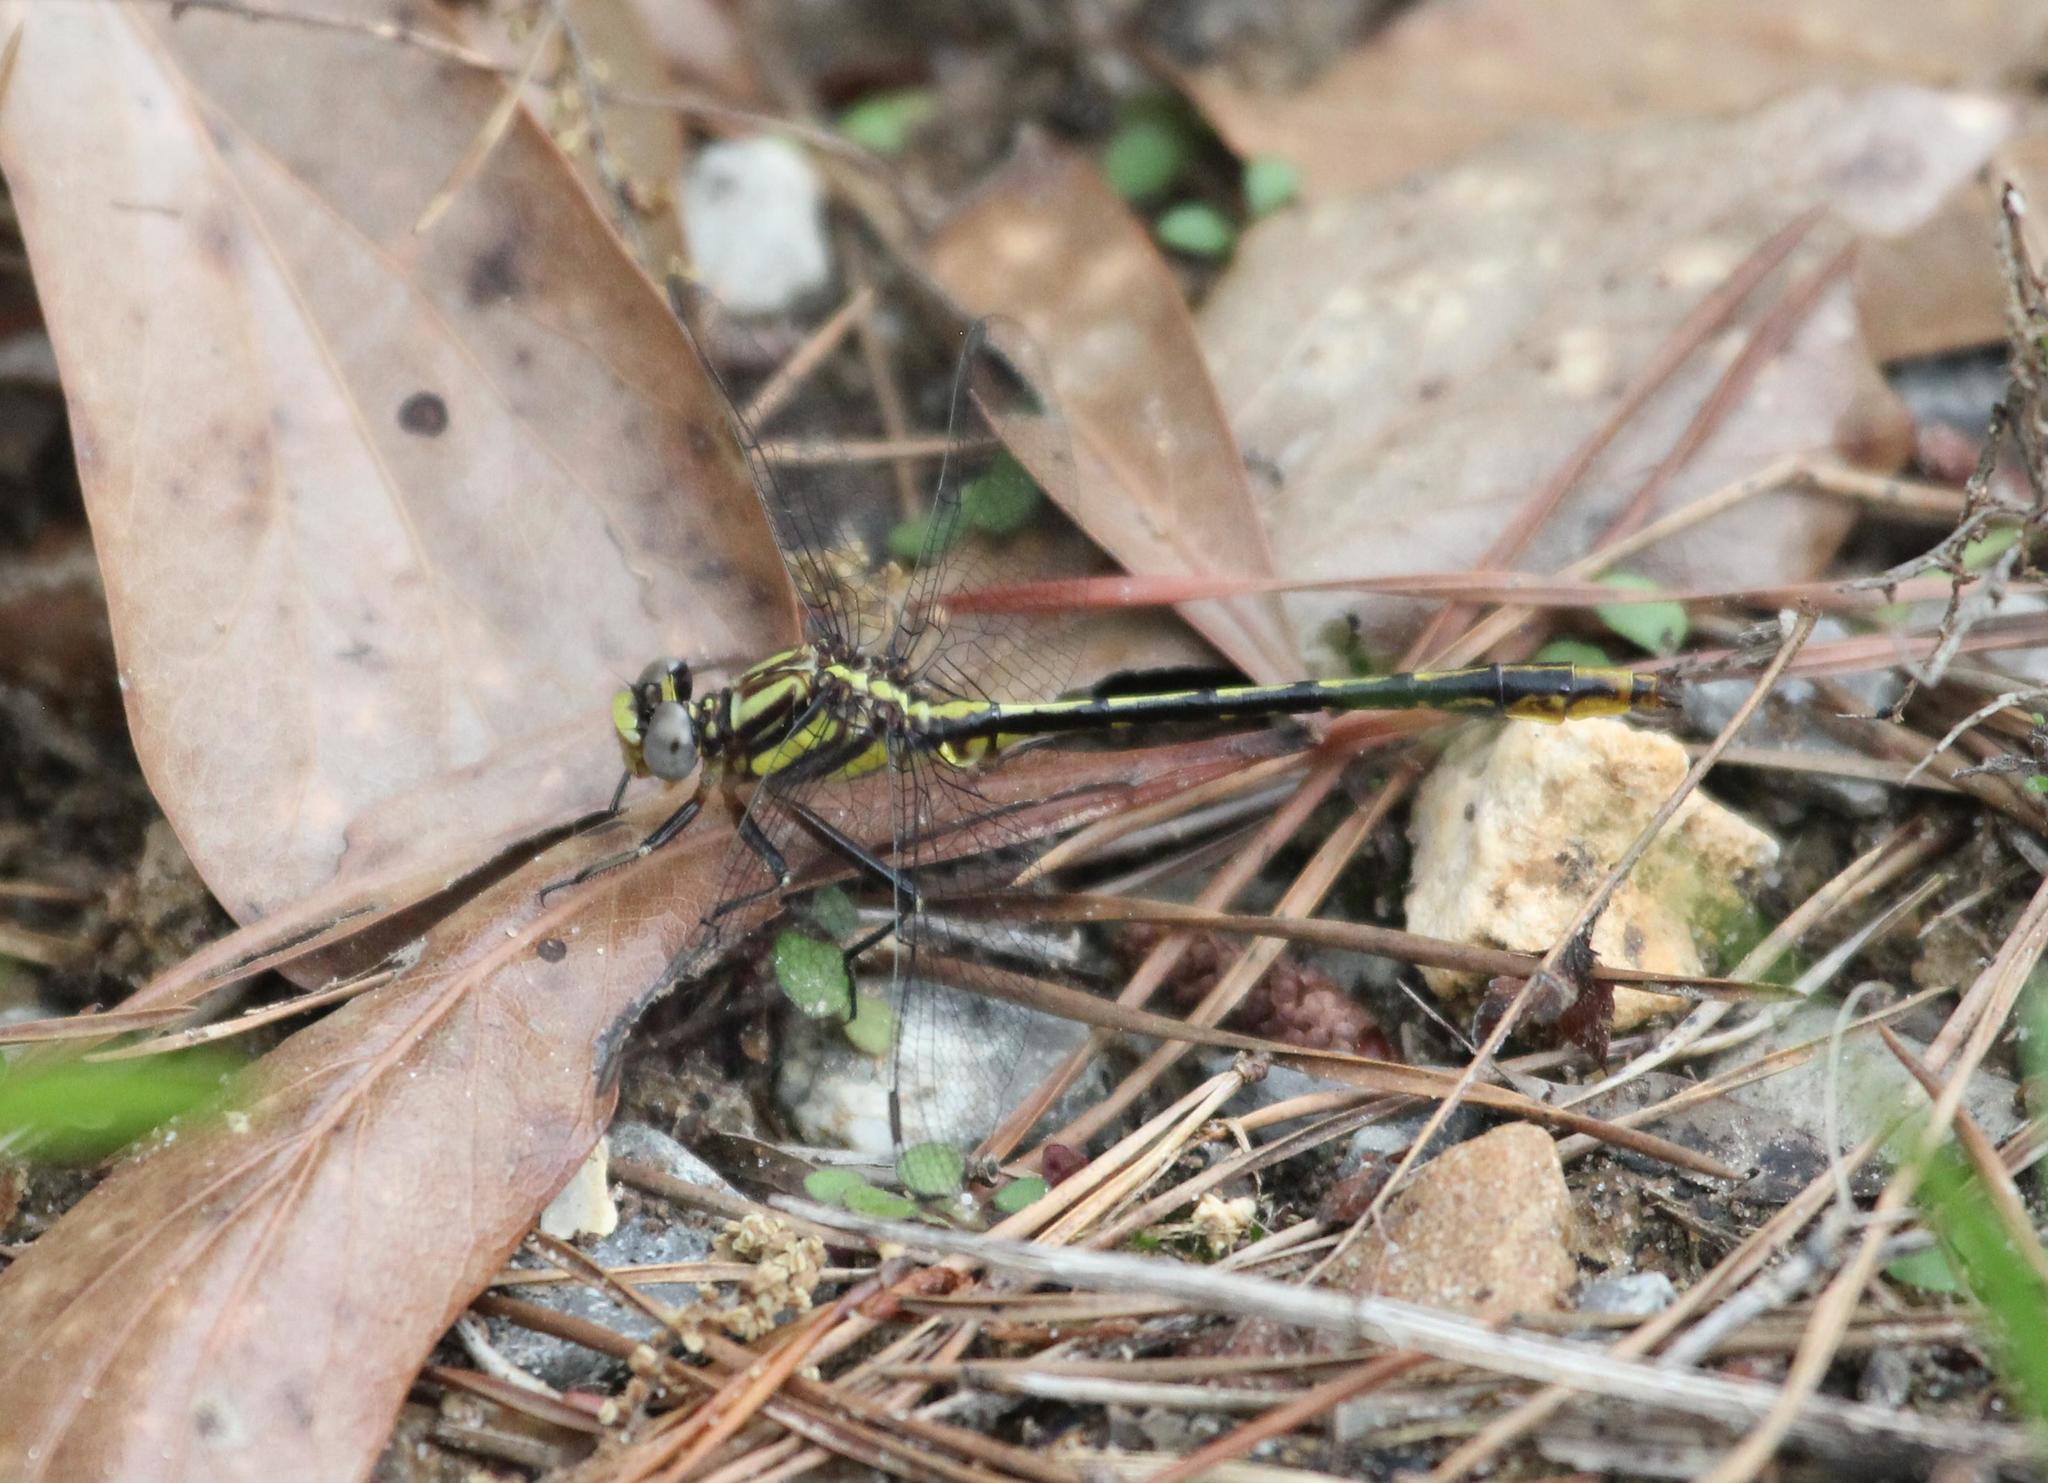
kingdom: Animalia
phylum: Arthropoda
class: Insecta
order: Odonata
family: Gomphidae
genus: Phanogomphus
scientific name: Phanogomphus exilis
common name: Lancet clubtail
